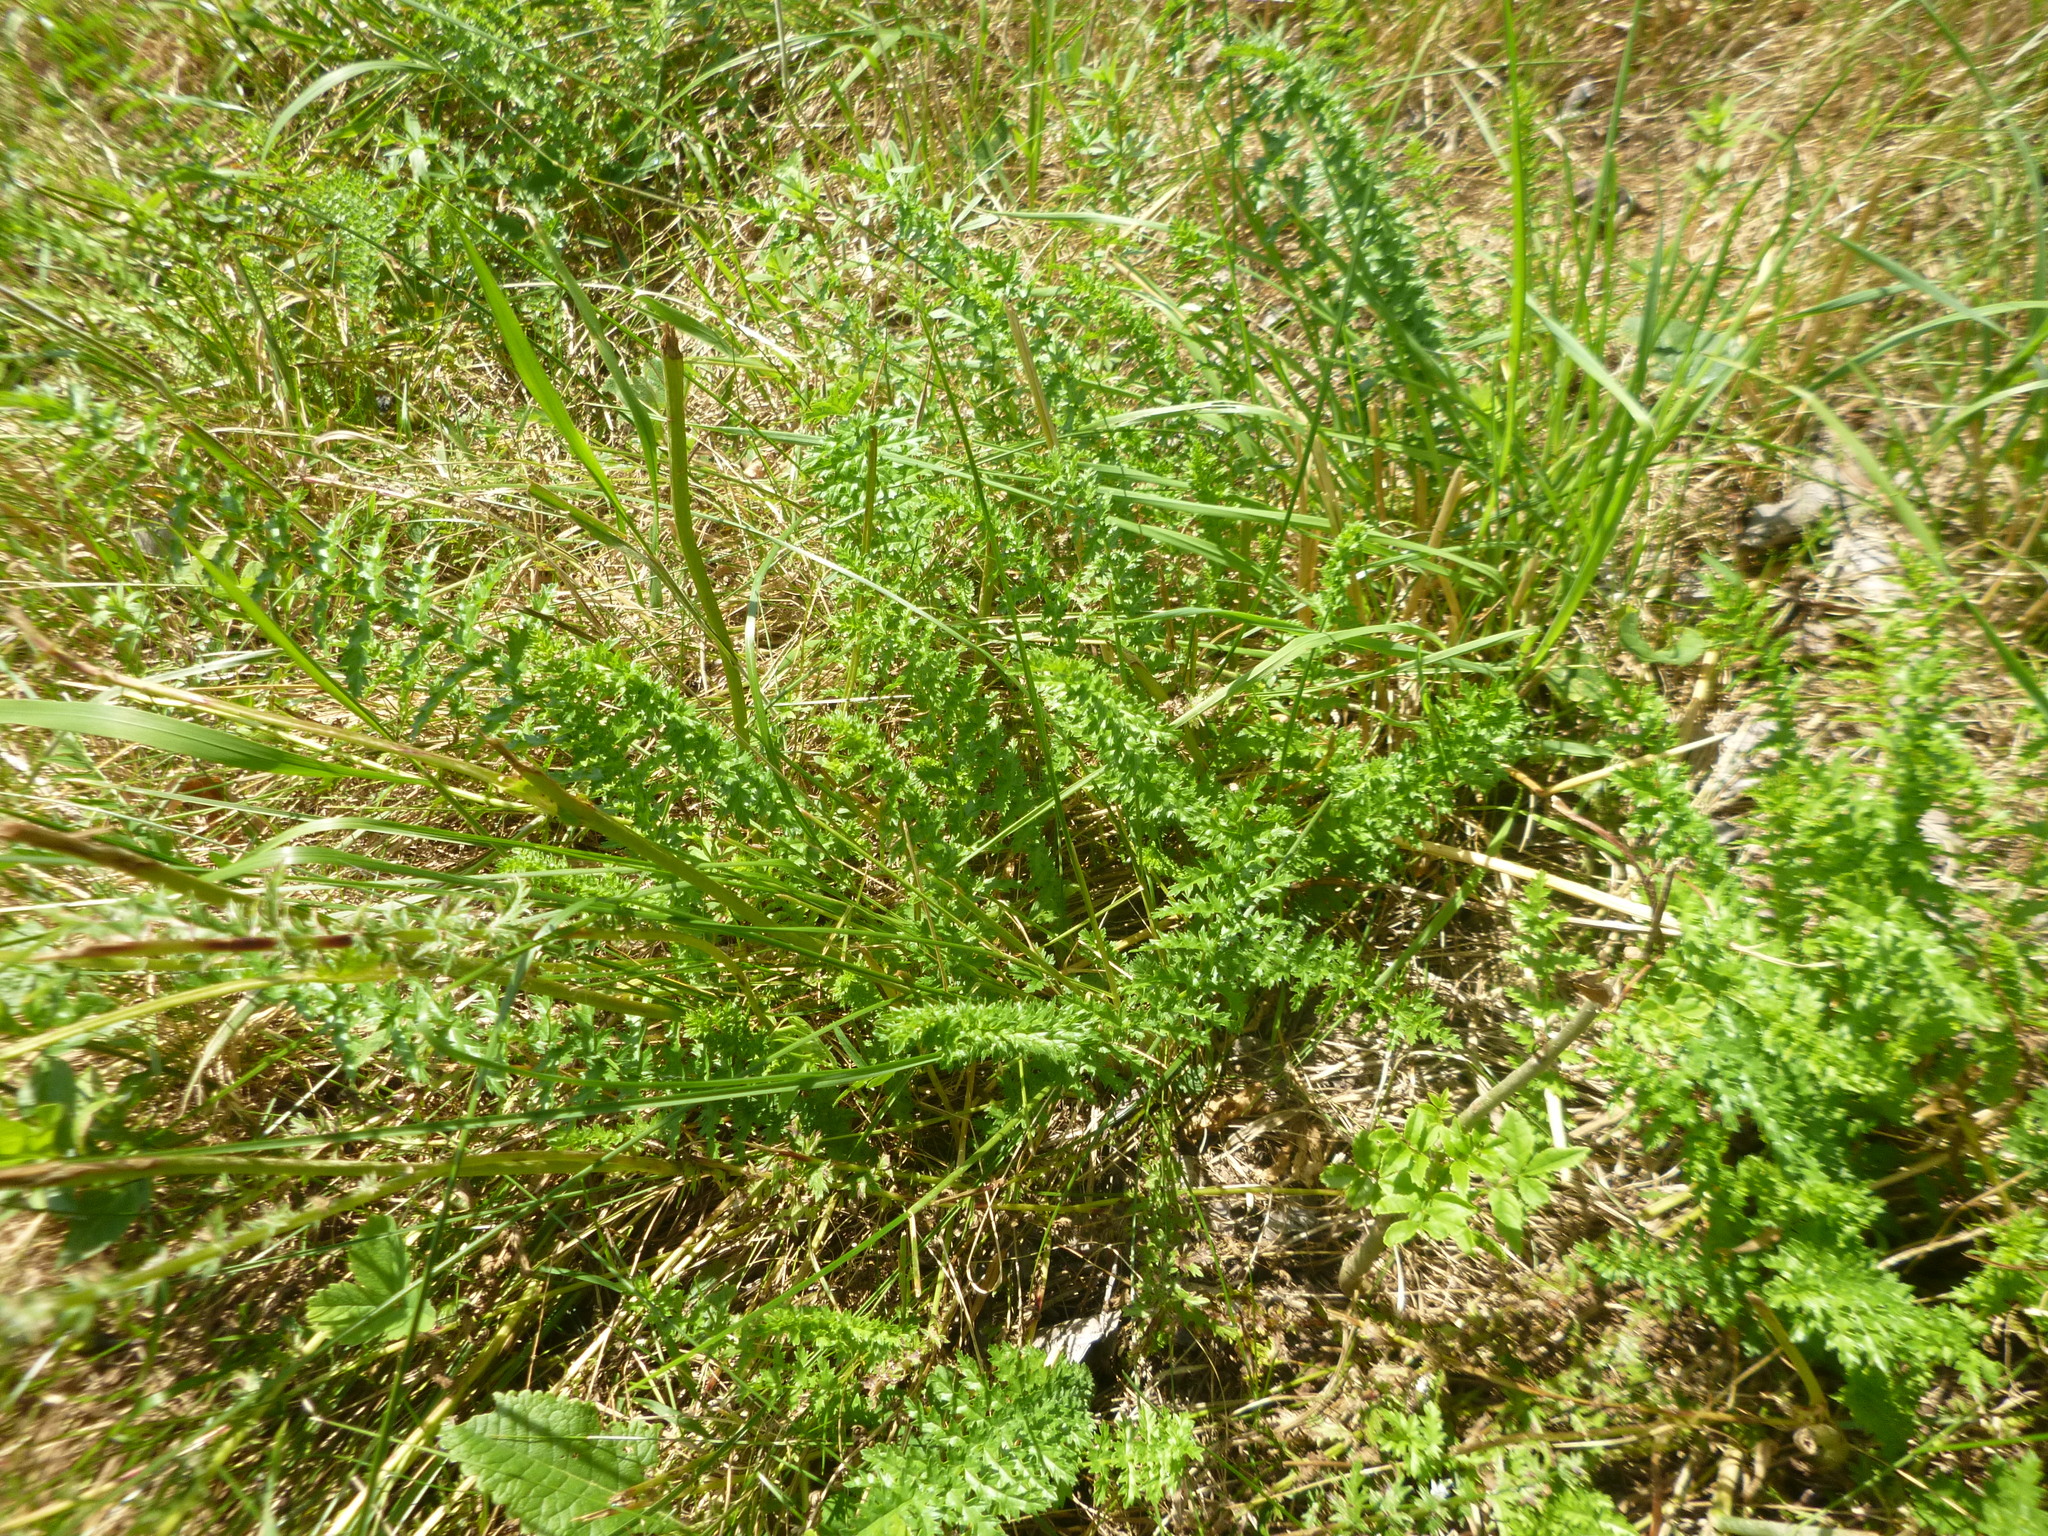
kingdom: Plantae
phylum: Tracheophyta
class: Magnoliopsida
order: Rosales
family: Rosaceae
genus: Filipendula
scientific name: Filipendula vulgaris
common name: Dropwort
